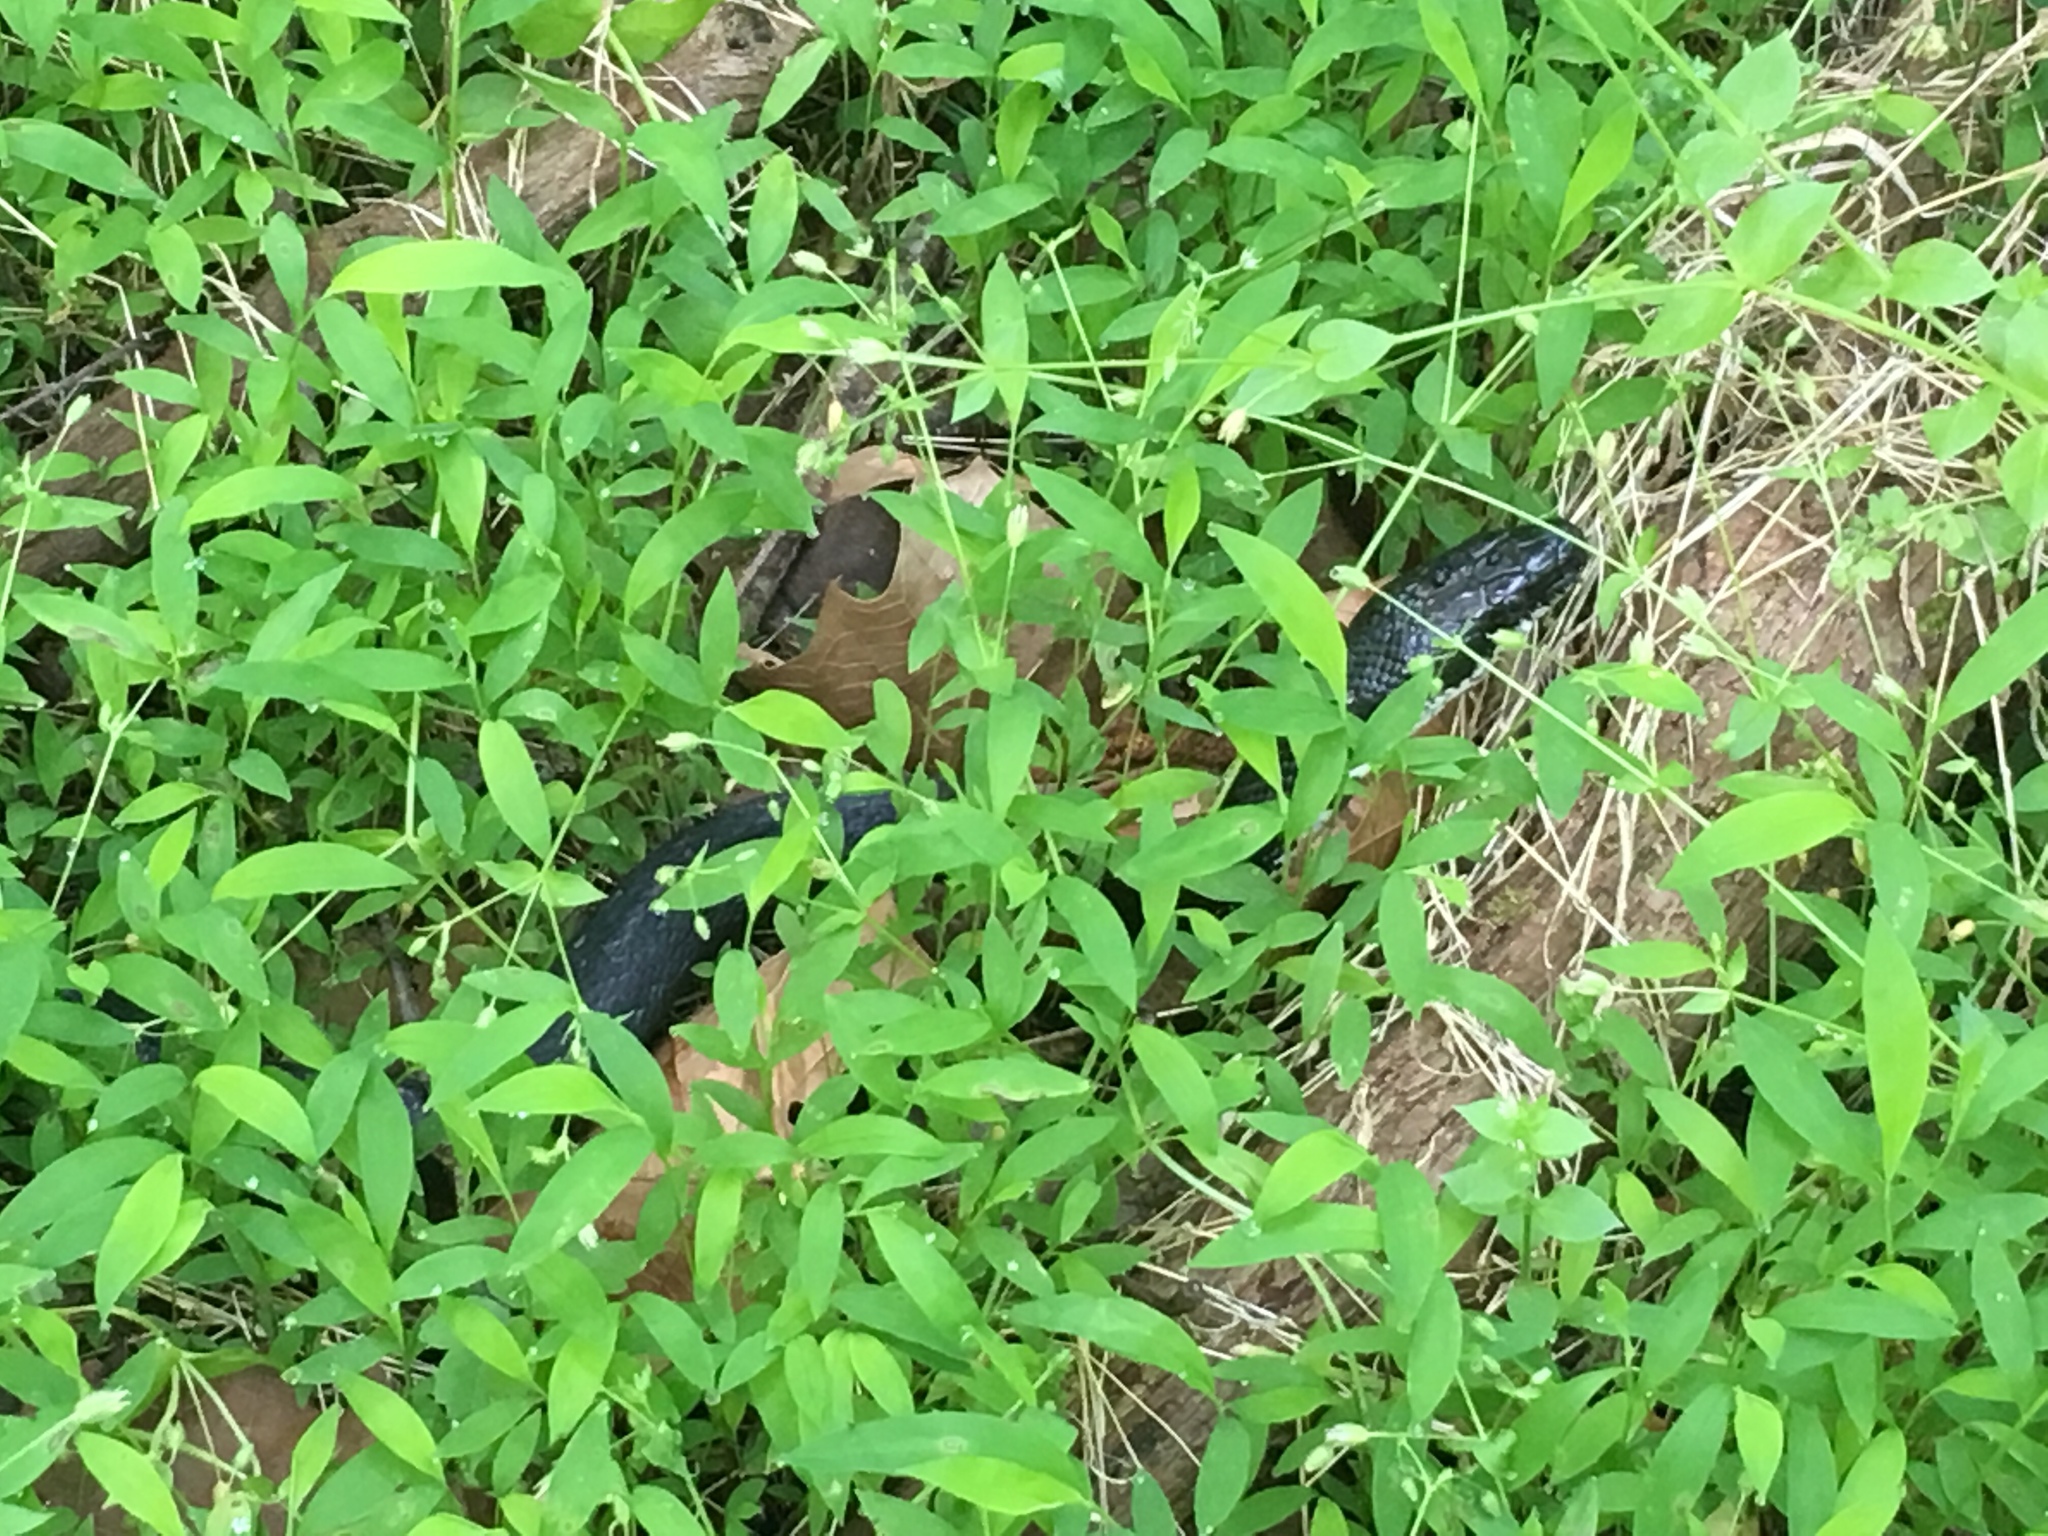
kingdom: Animalia
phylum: Chordata
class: Squamata
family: Colubridae
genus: Pantherophis
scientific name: Pantherophis alleghaniensis
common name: Eastern rat snake
